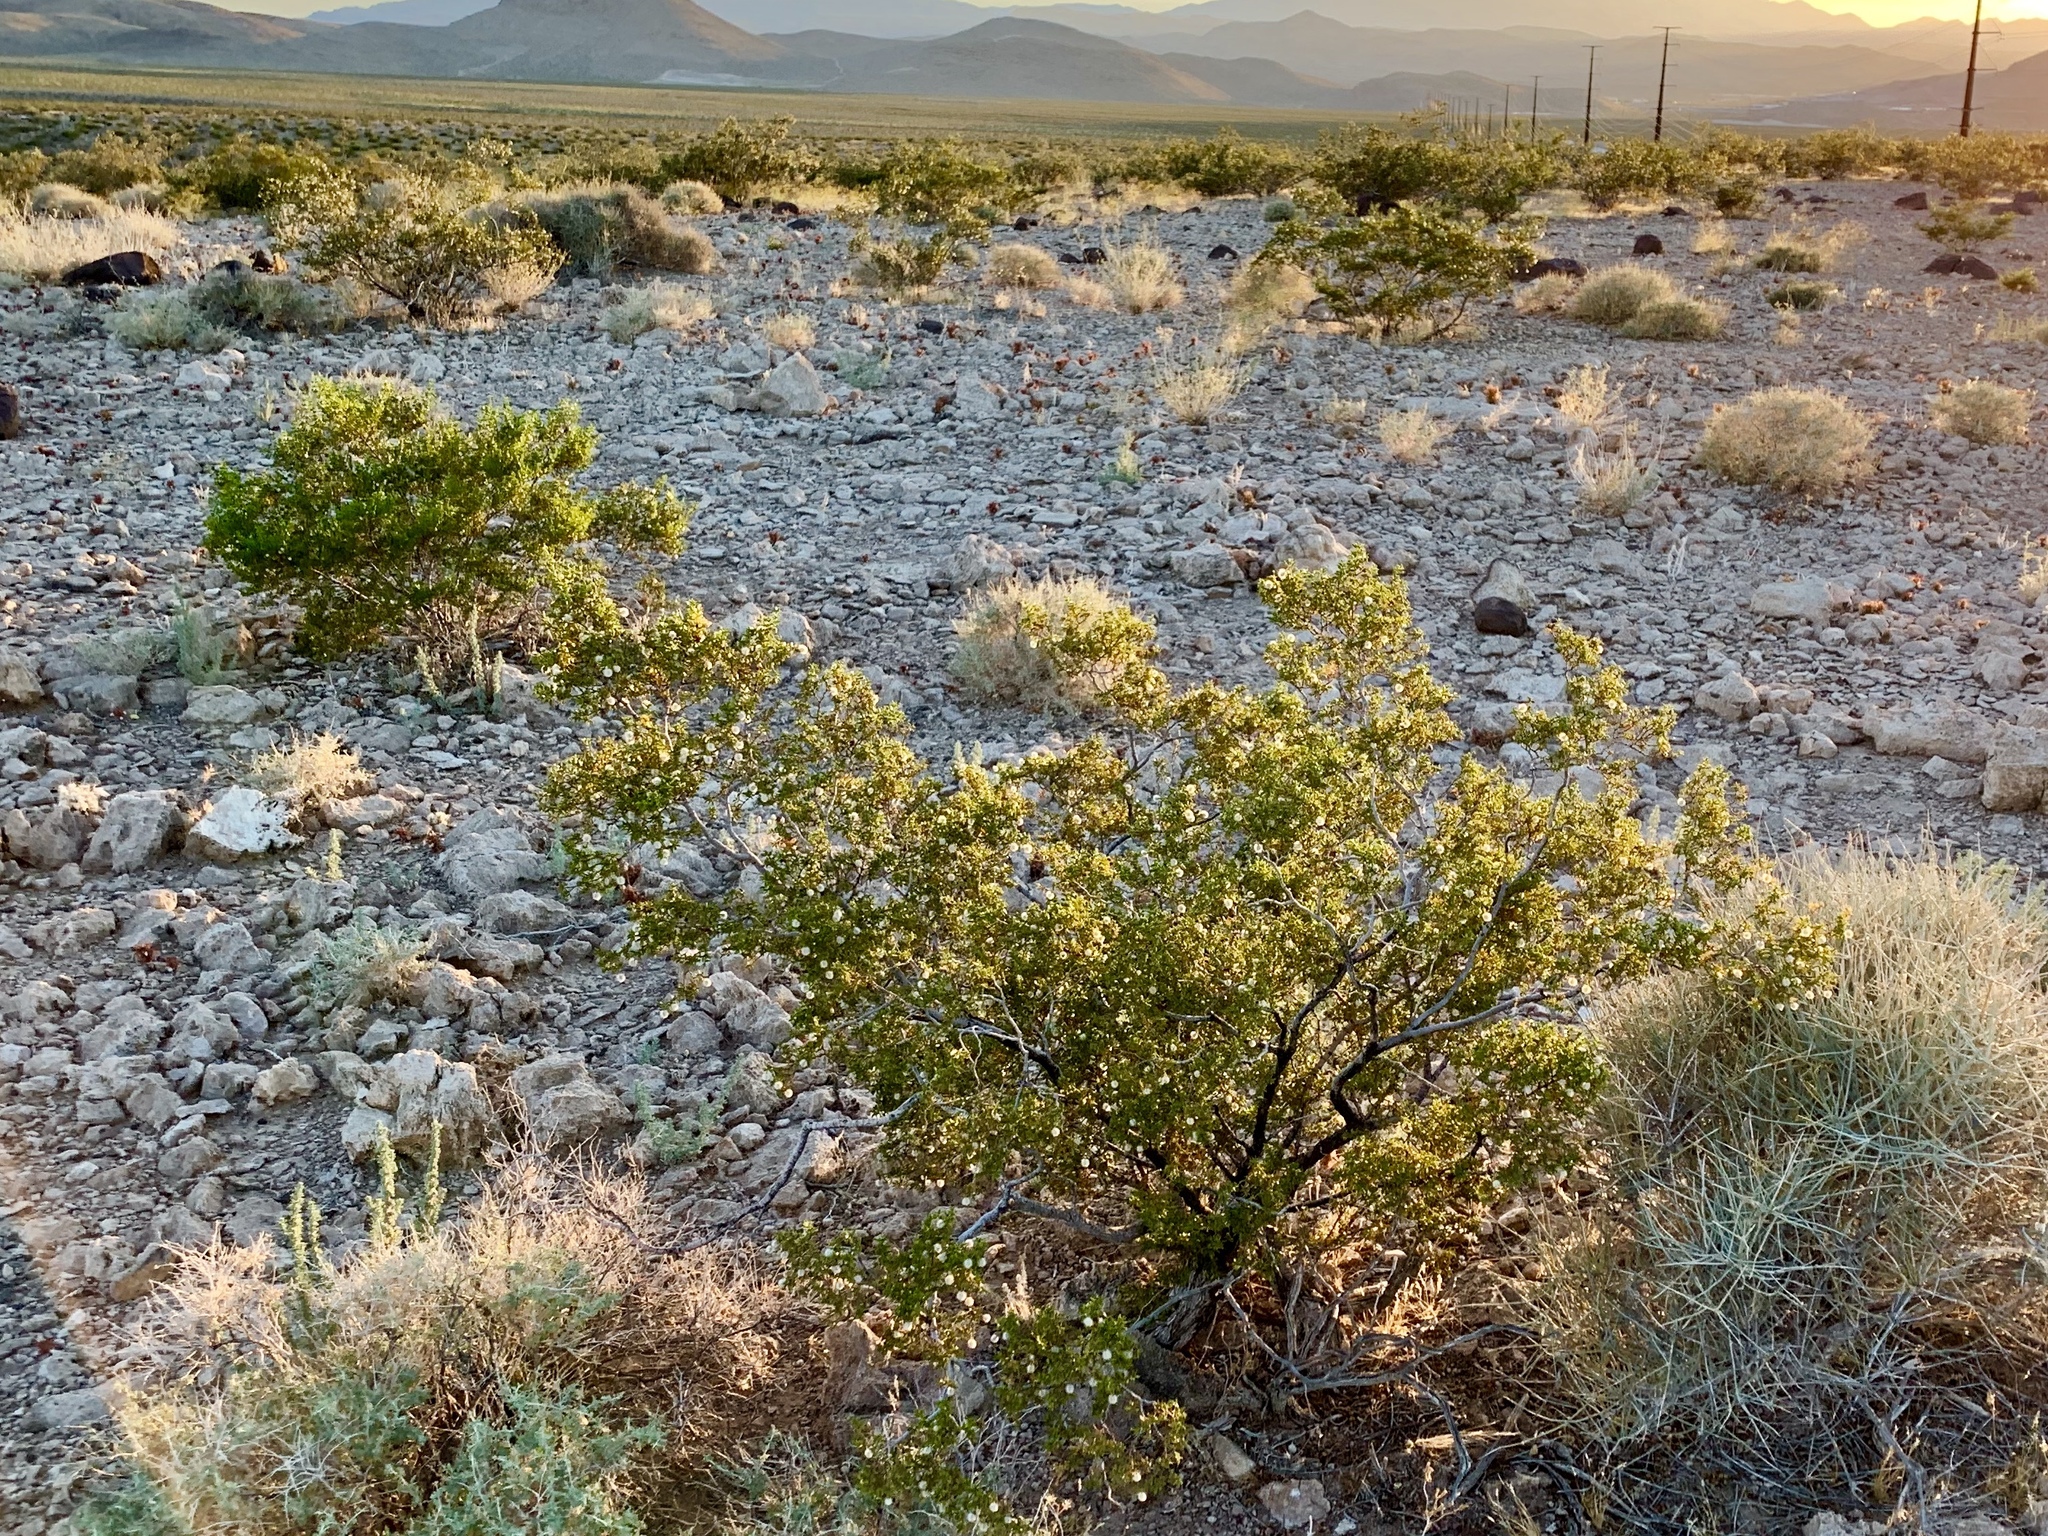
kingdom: Plantae
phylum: Tracheophyta
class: Magnoliopsida
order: Zygophyllales
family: Zygophyllaceae
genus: Larrea
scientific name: Larrea tridentata
